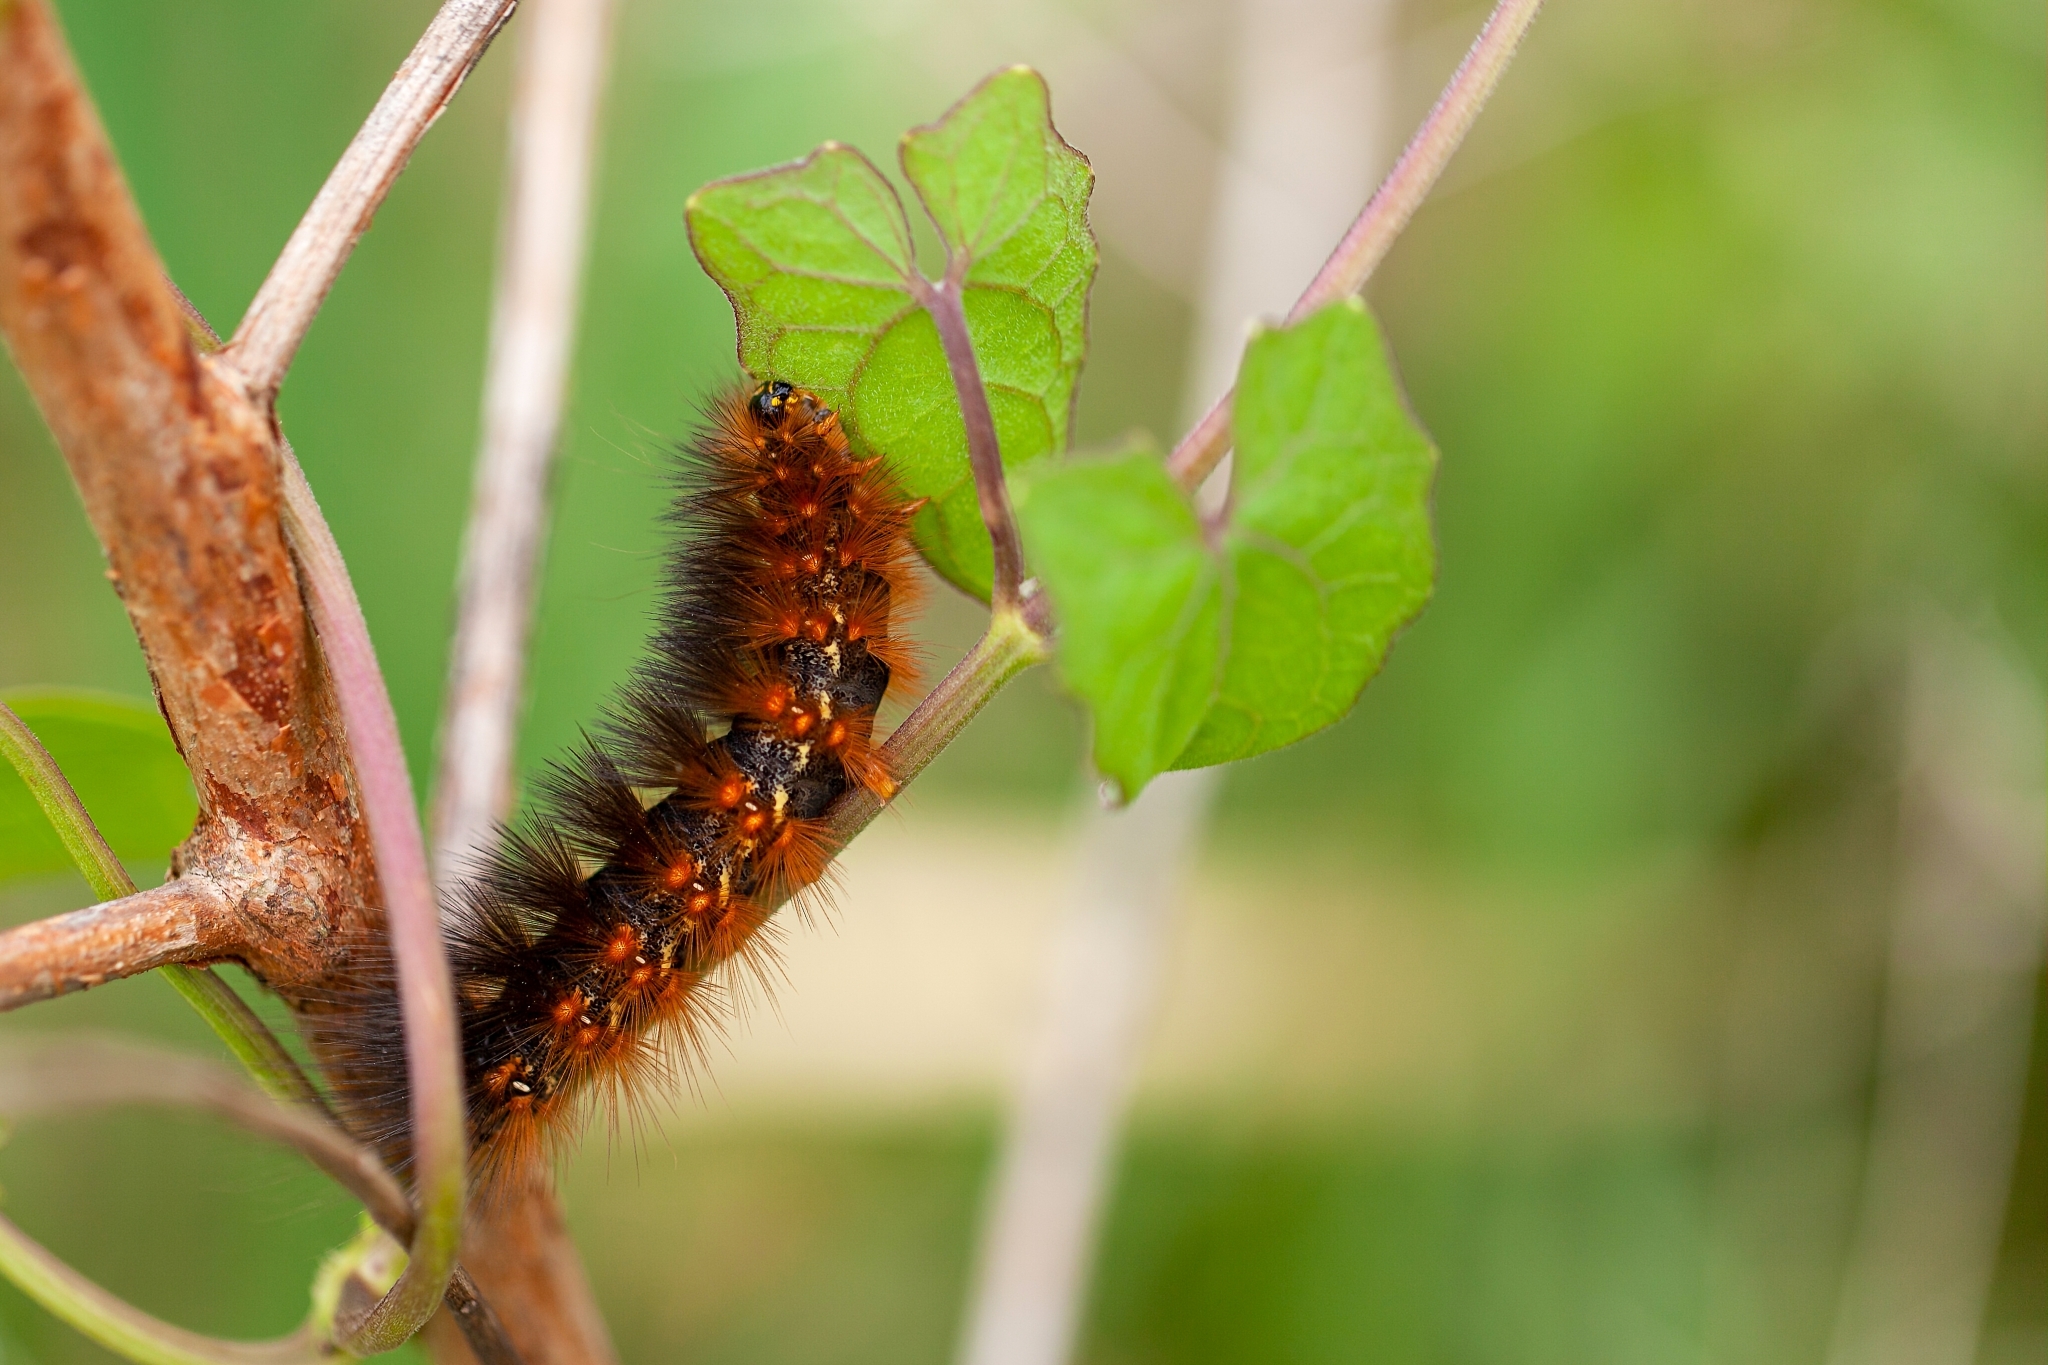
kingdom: Animalia
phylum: Arthropoda
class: Insecta
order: Lepidoptera
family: Erebidae
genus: Estigmene
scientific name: Estigmene acrea
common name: Salt marsh moth
